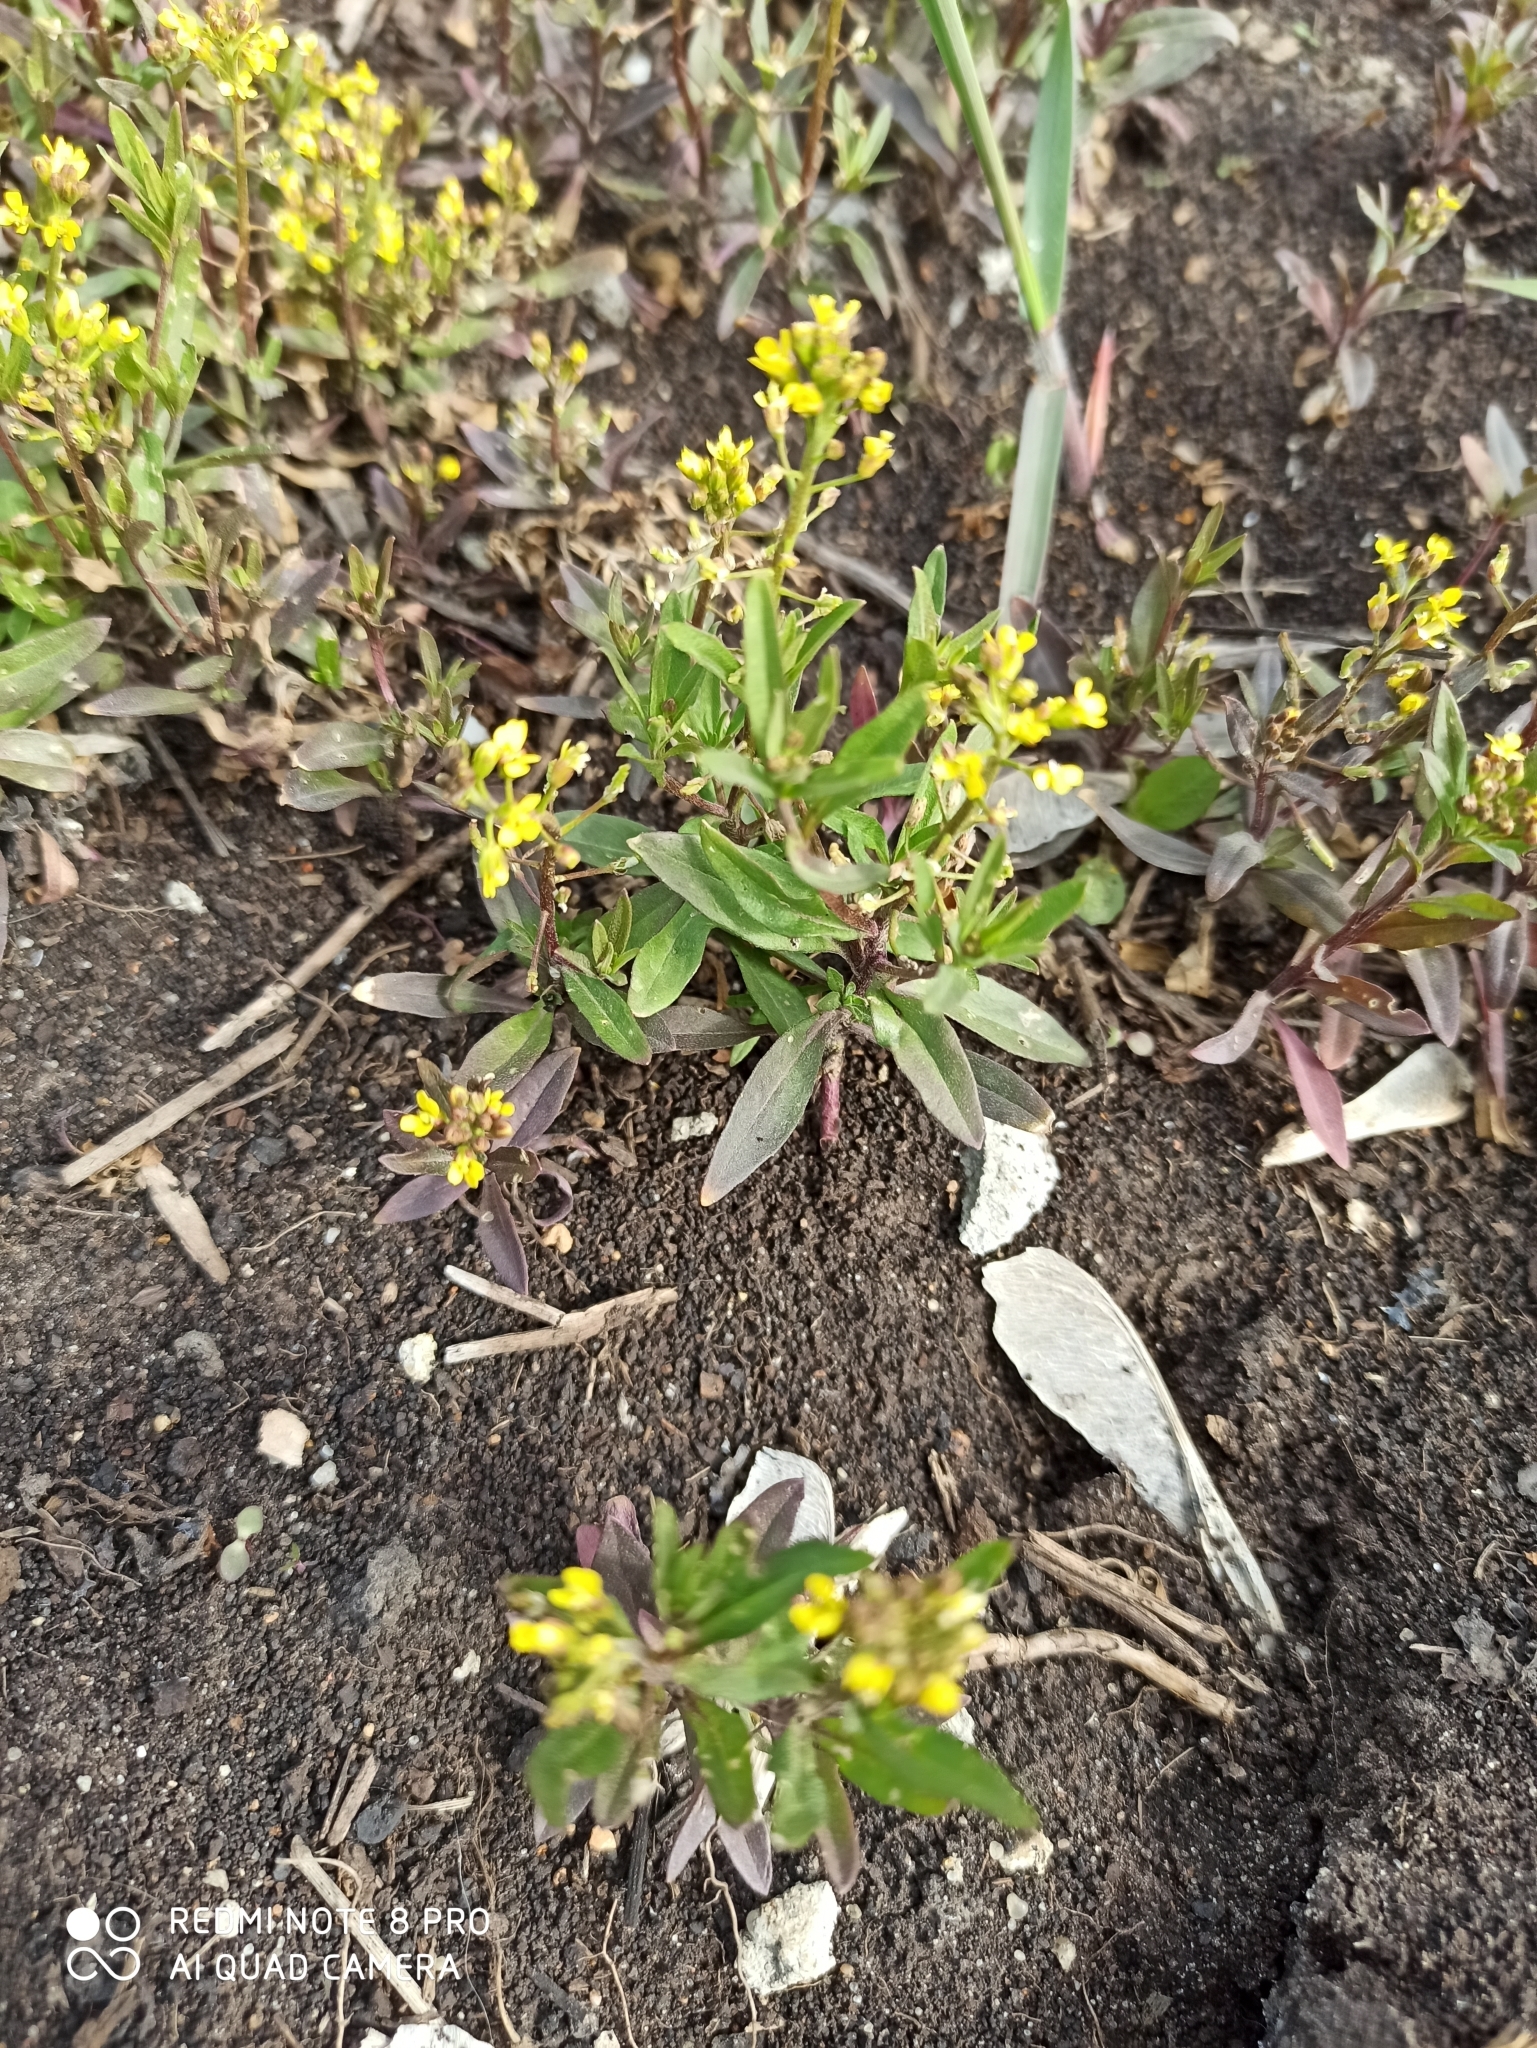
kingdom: Plantae
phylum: Tracheophyta
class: Magnoliopsida
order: Brassicales
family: Brassicaceae
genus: Erysimum
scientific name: Erysimum cheiranthoides
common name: Treacle mustard
